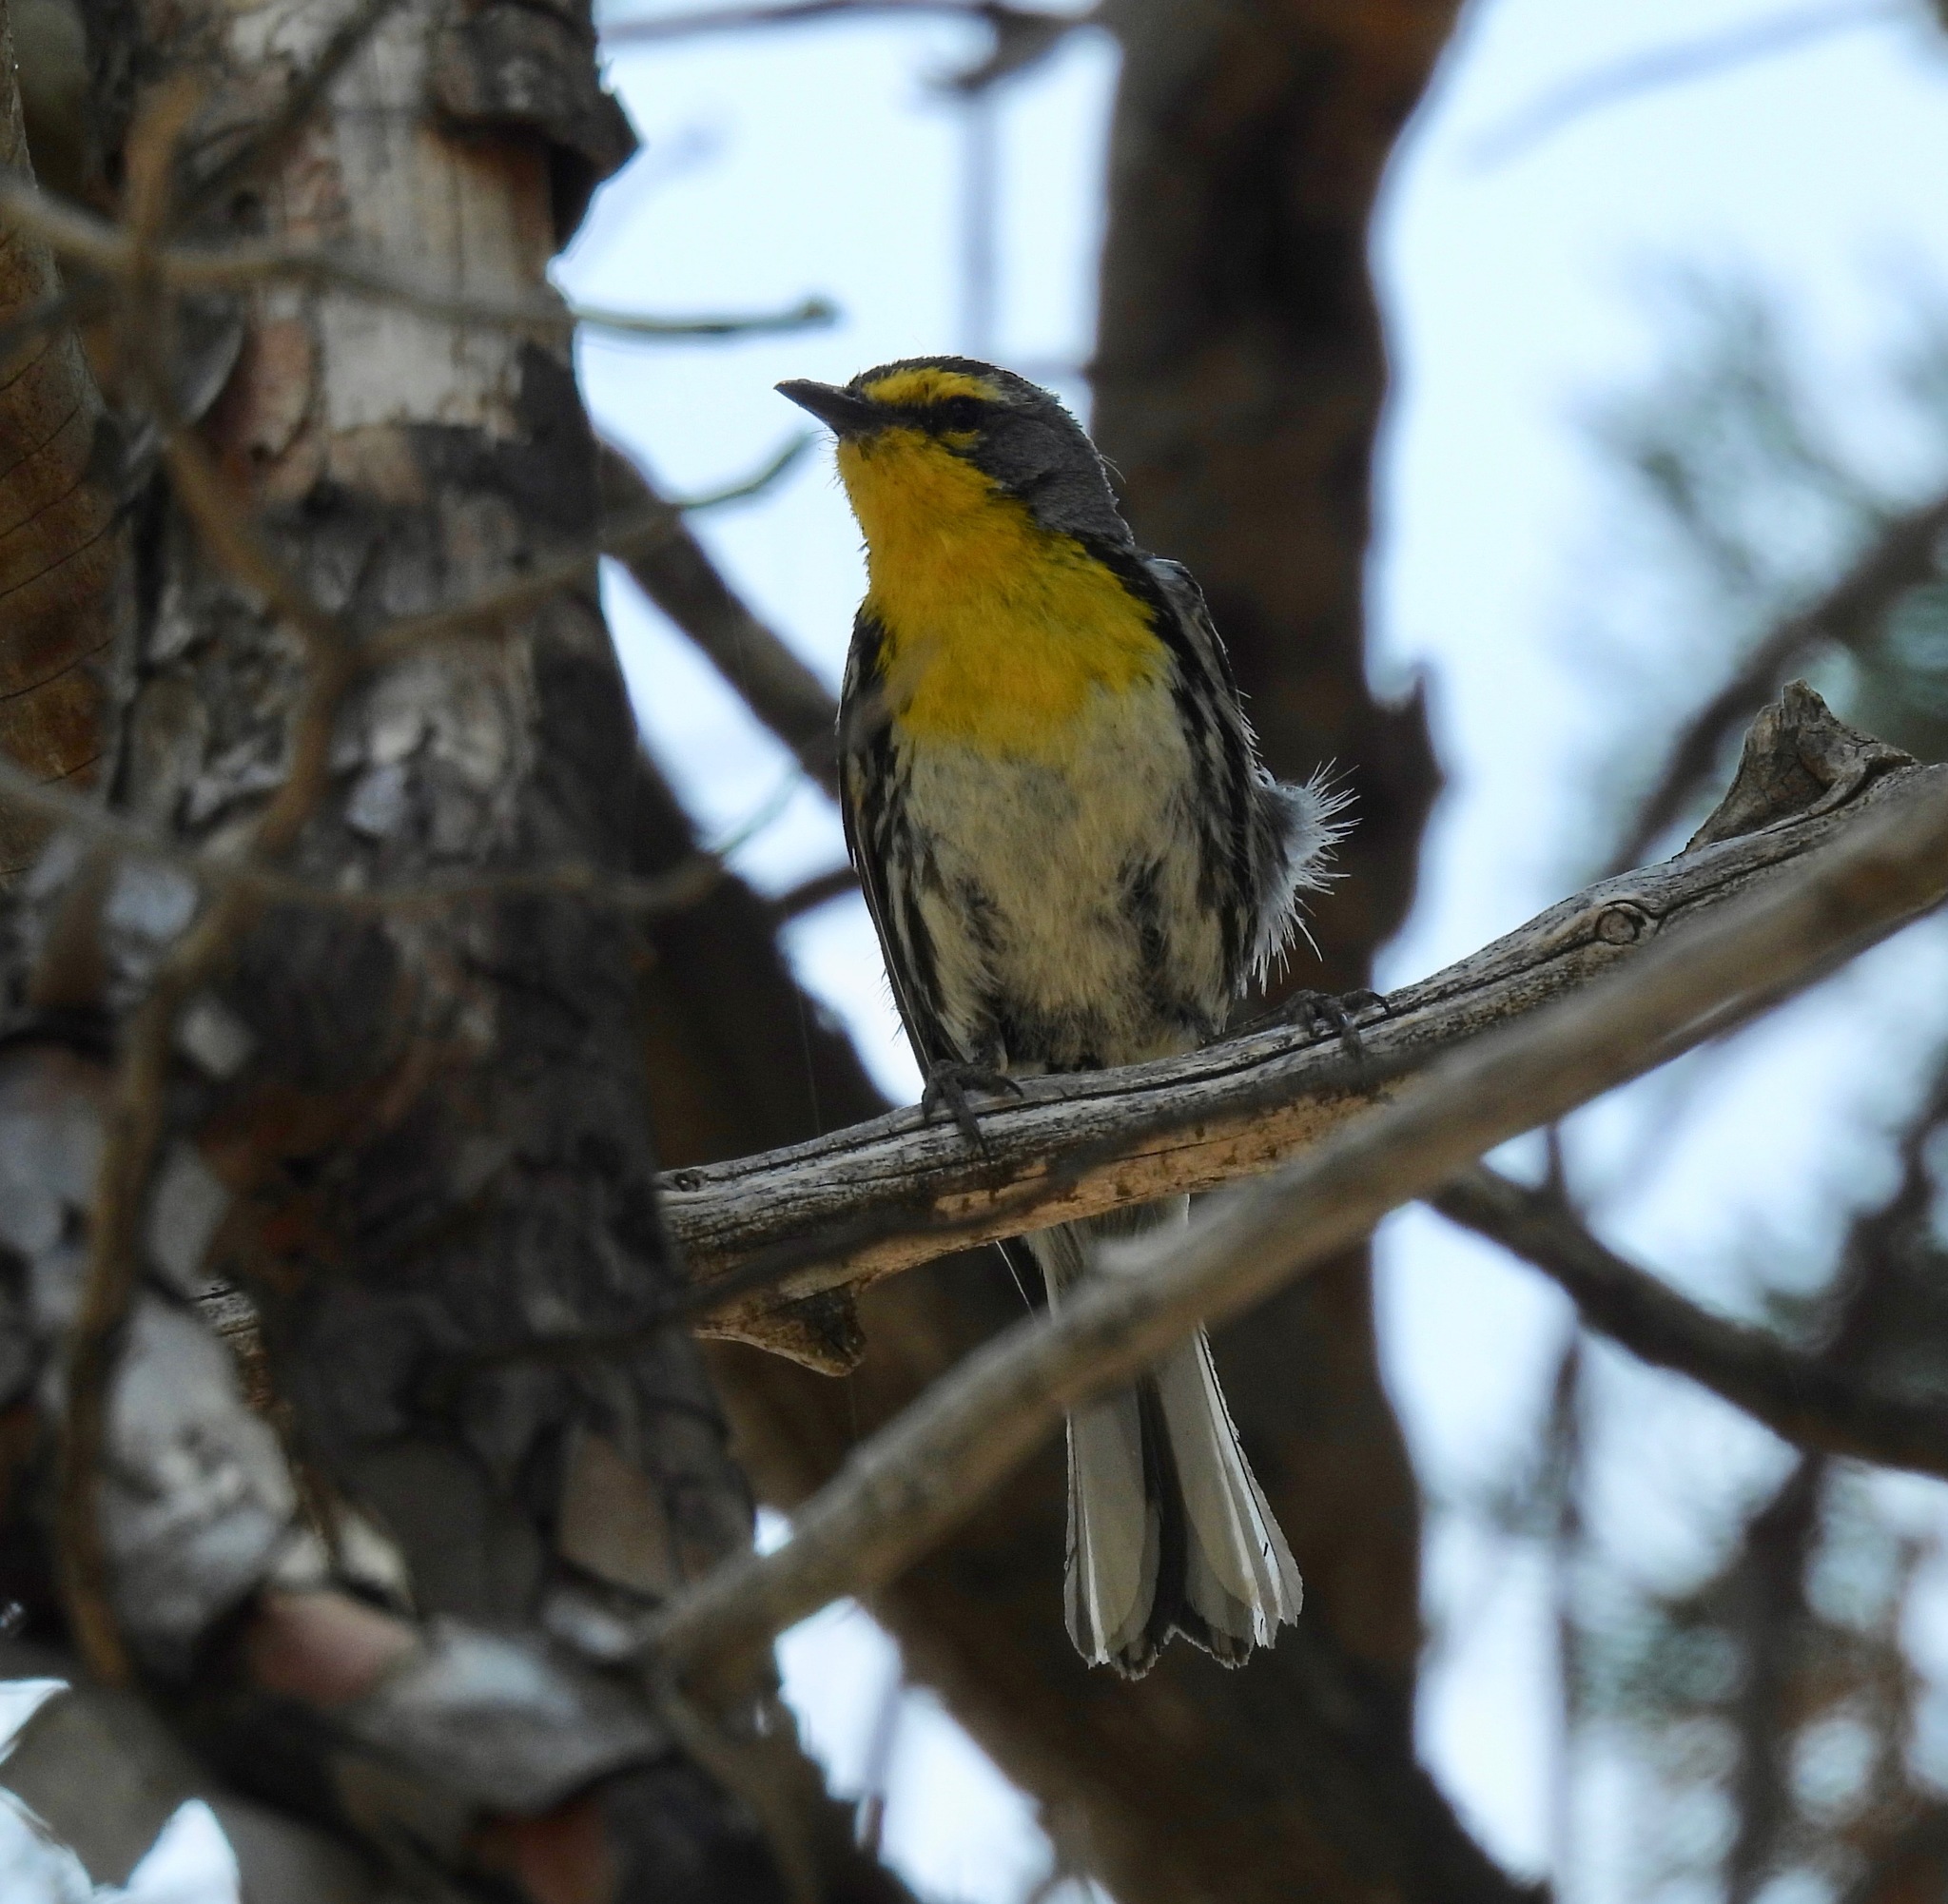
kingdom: Animalia
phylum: Chordata
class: Aves
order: Passeriformes
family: Parulidae
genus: Setophaga
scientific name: Setophaga graciae
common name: Grace's warbler
